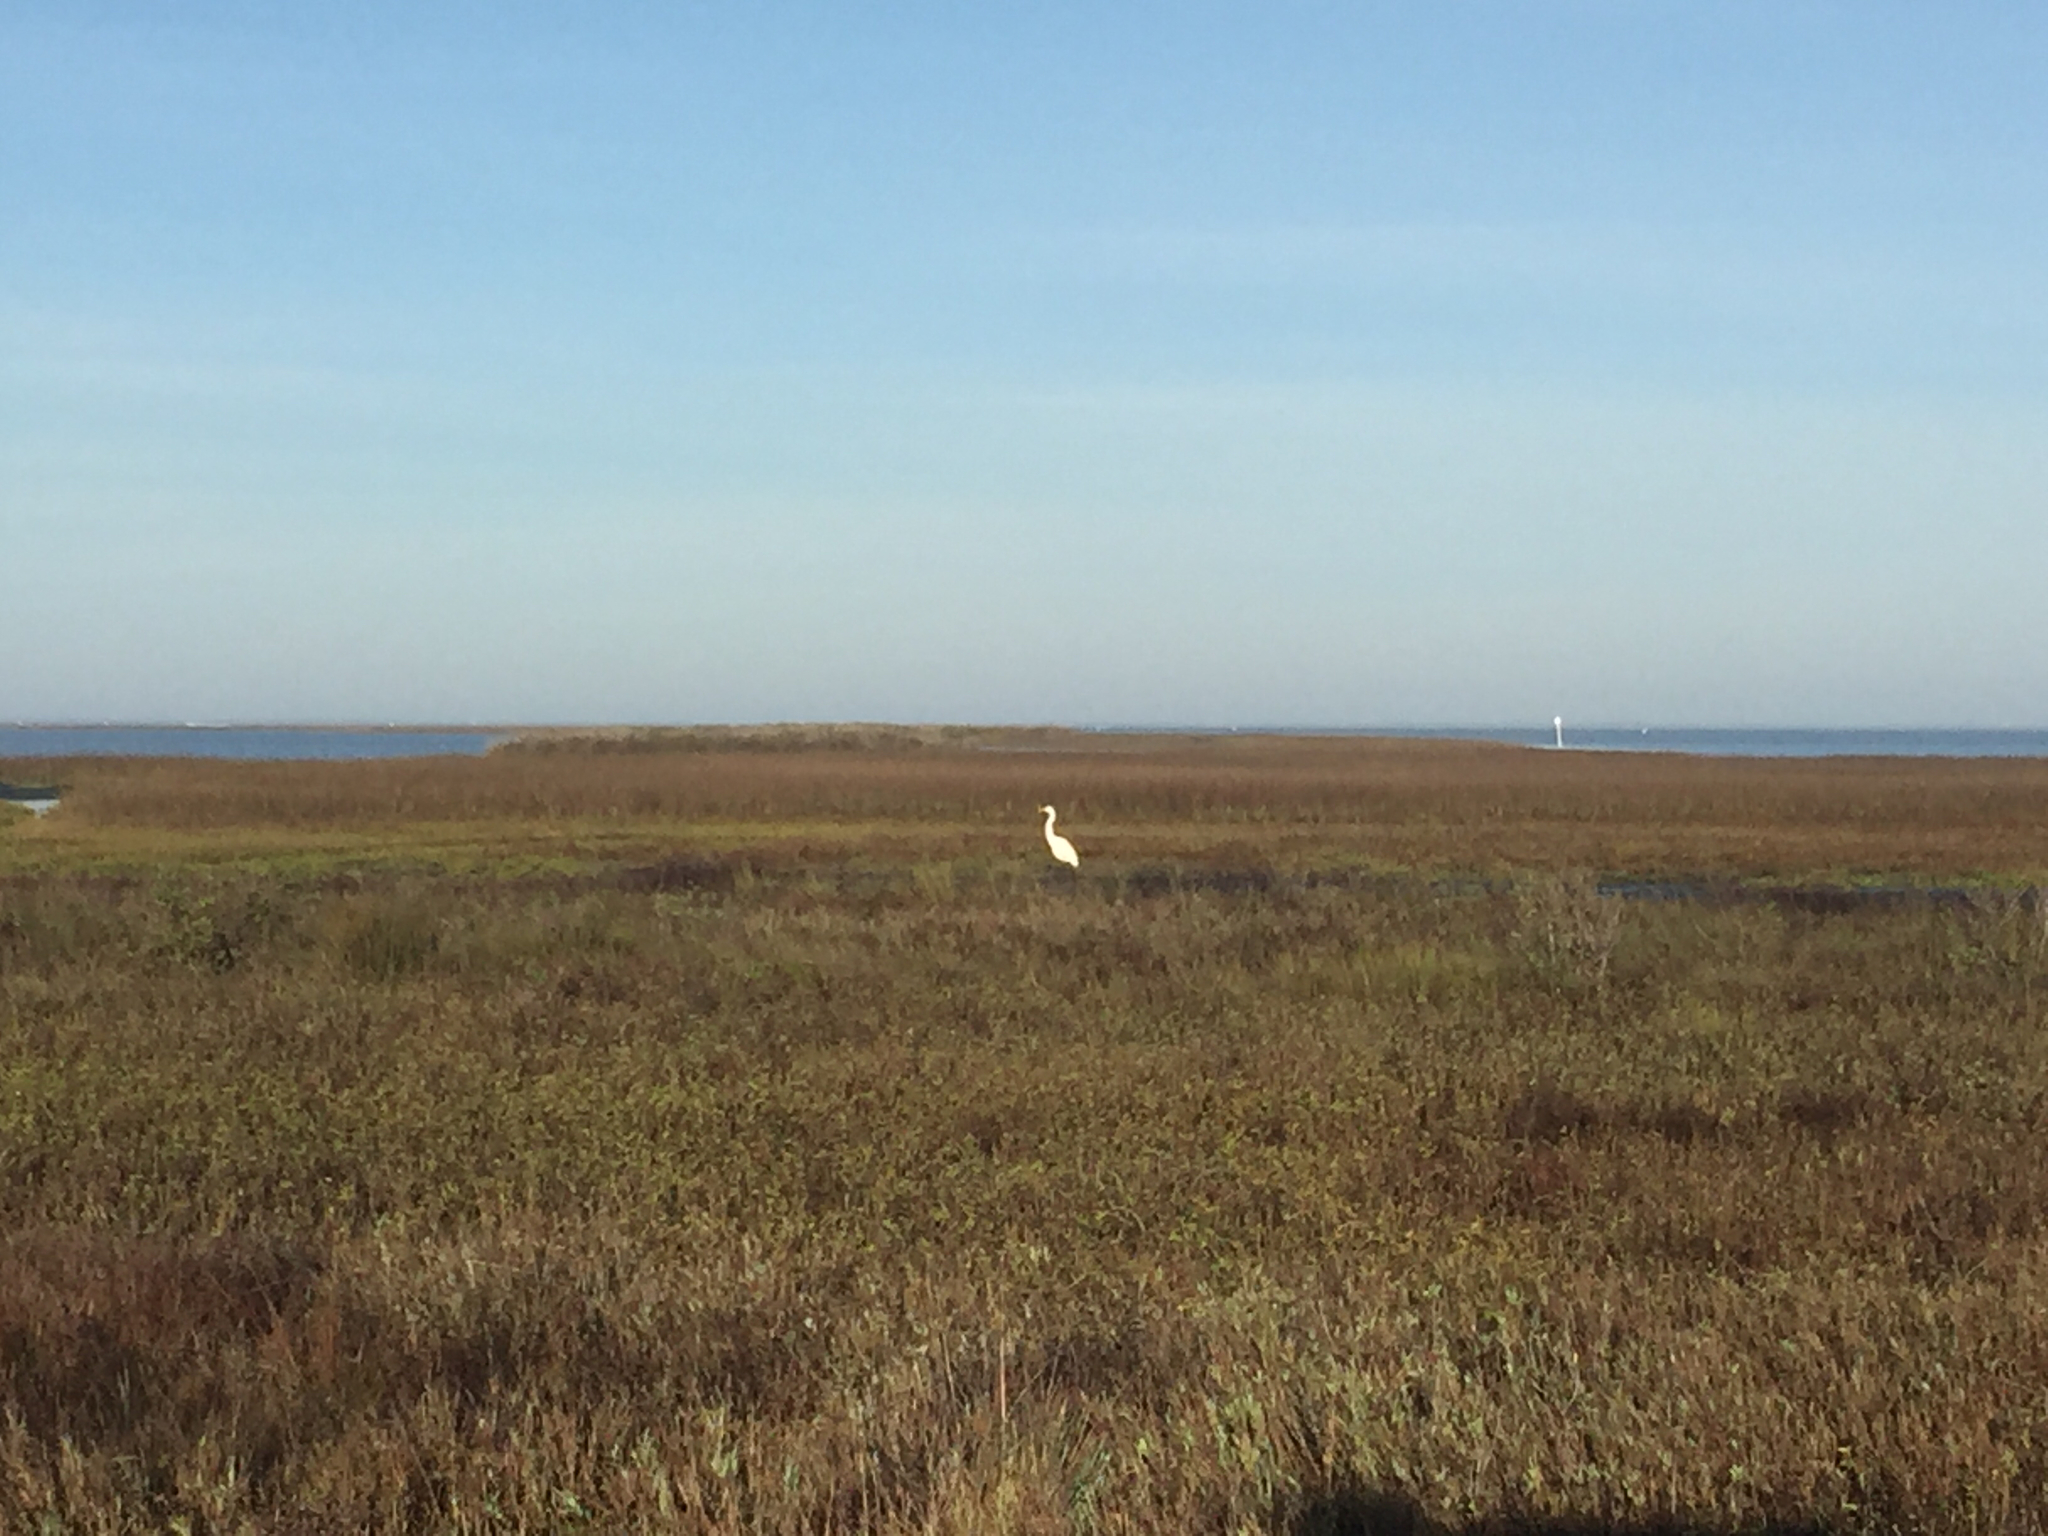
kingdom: Animalia
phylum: Chordata
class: Aves
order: Pelecaniformes
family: Ardeidae
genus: Ardea
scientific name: Ardea alba
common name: Great egret
